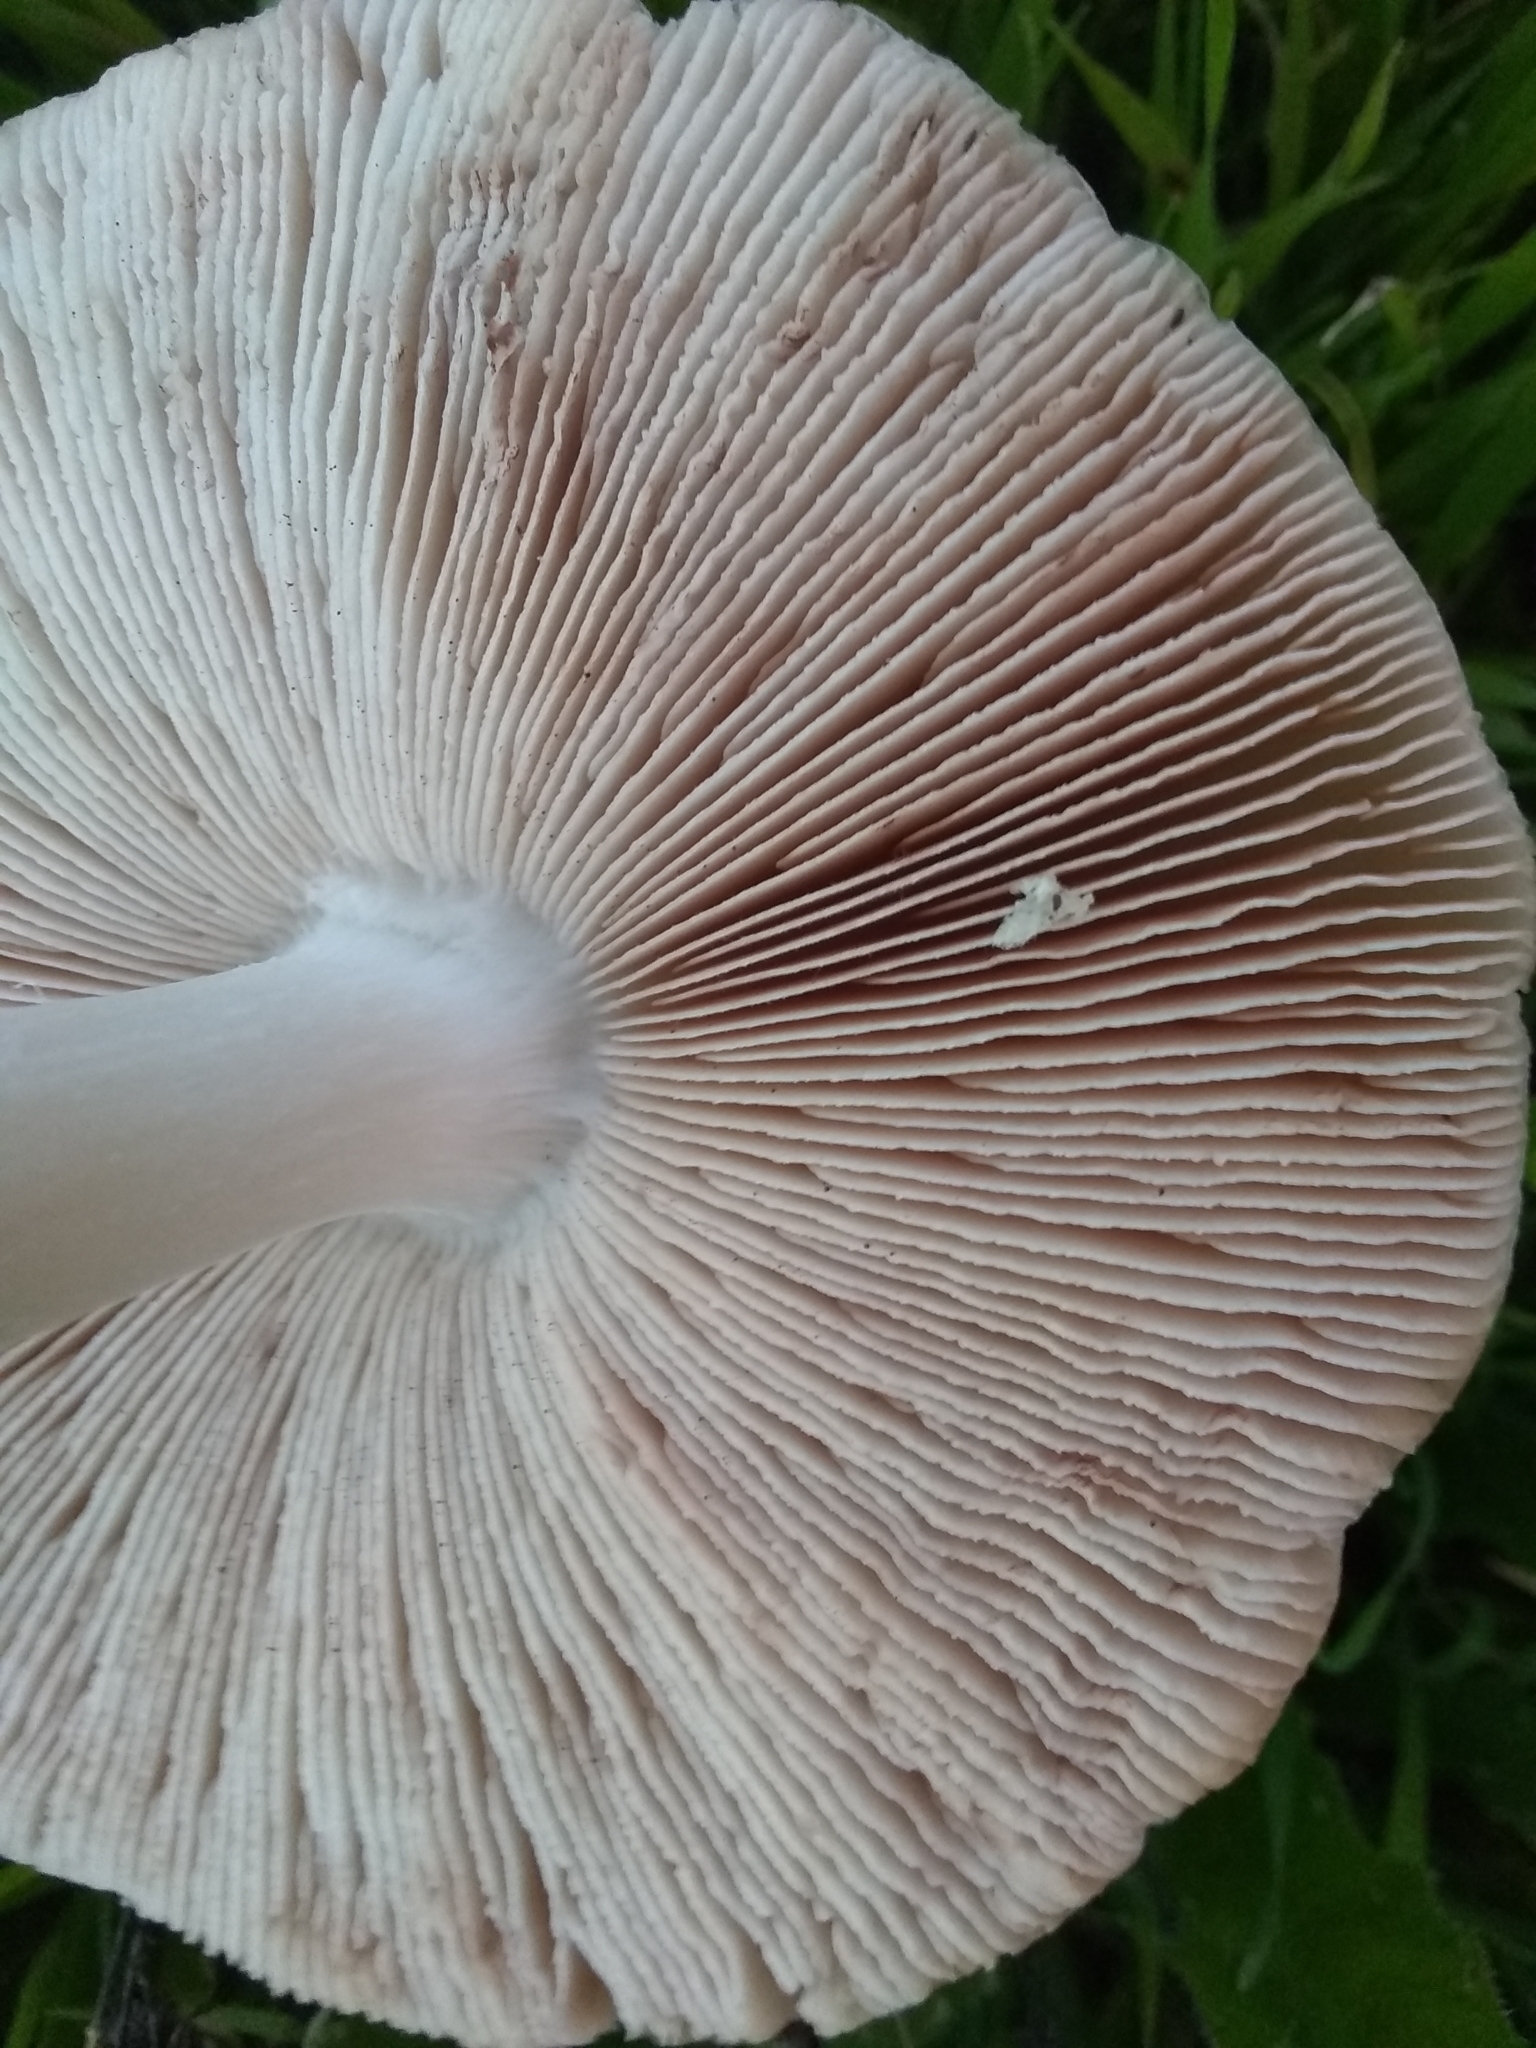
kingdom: Fungi
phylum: Basidiomycota
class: Agaricomycetes
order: Agaricales
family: Pluteaceae
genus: Volvopluteus
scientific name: Volvopluteus gloiocephalus
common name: Stubble rosegill
